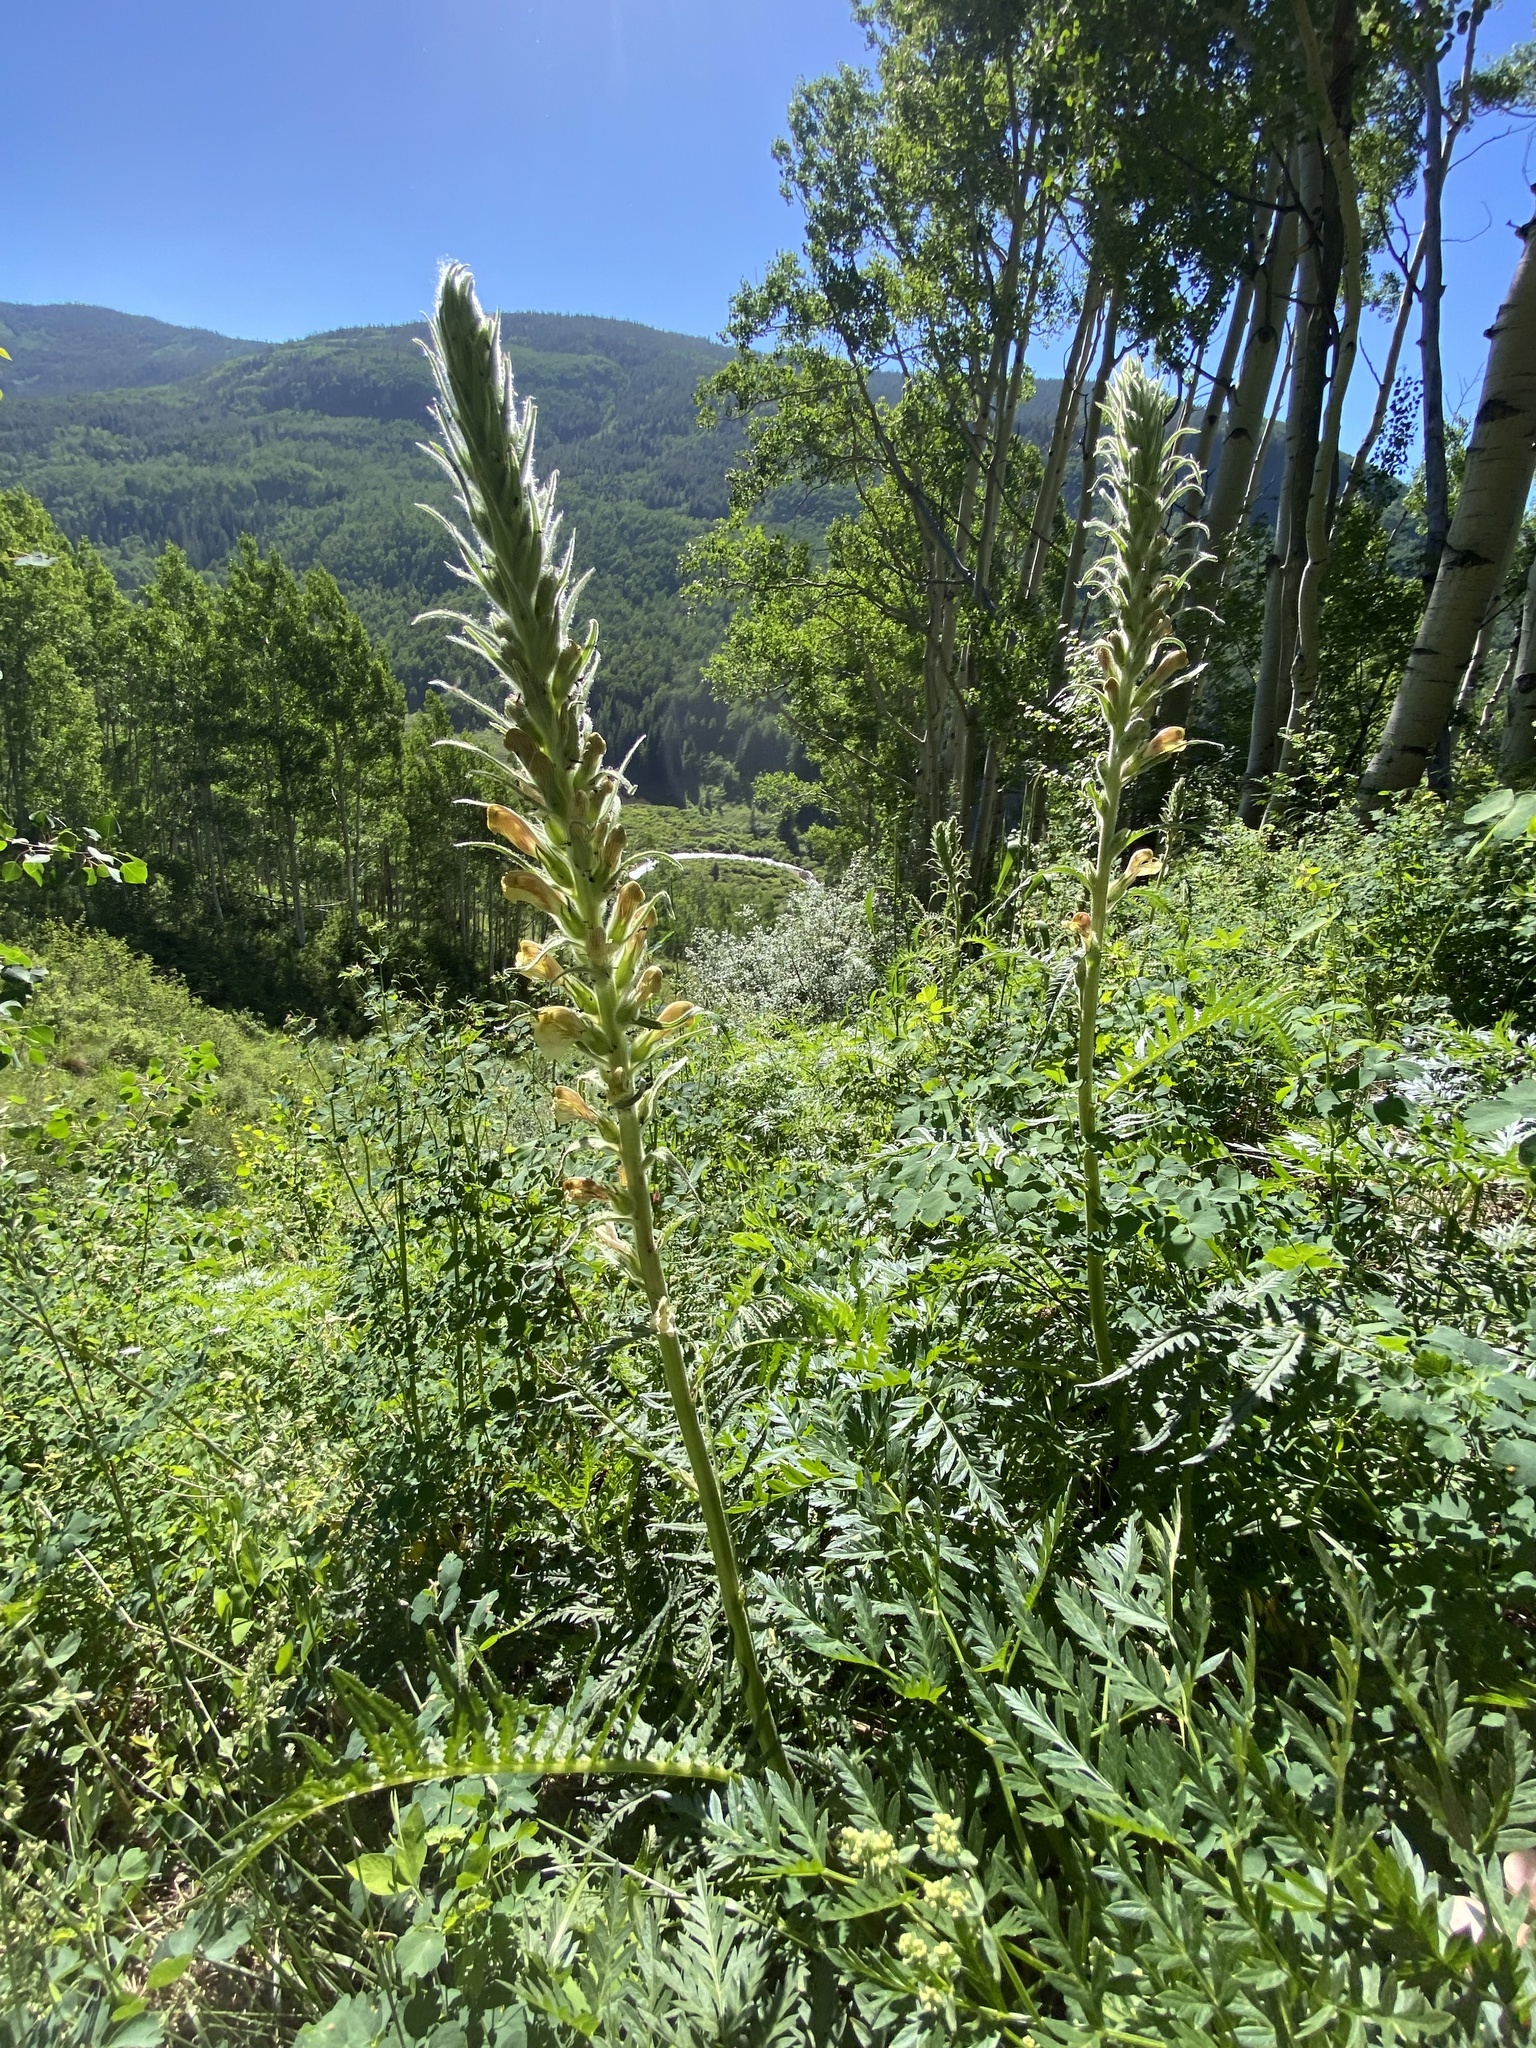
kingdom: Plantae
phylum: Tracheophyta
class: Magnoliopsida
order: Lamiales
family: Orobanchaceae
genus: Pedicularis
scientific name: Pedicularis procera
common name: Gray's lousewort
